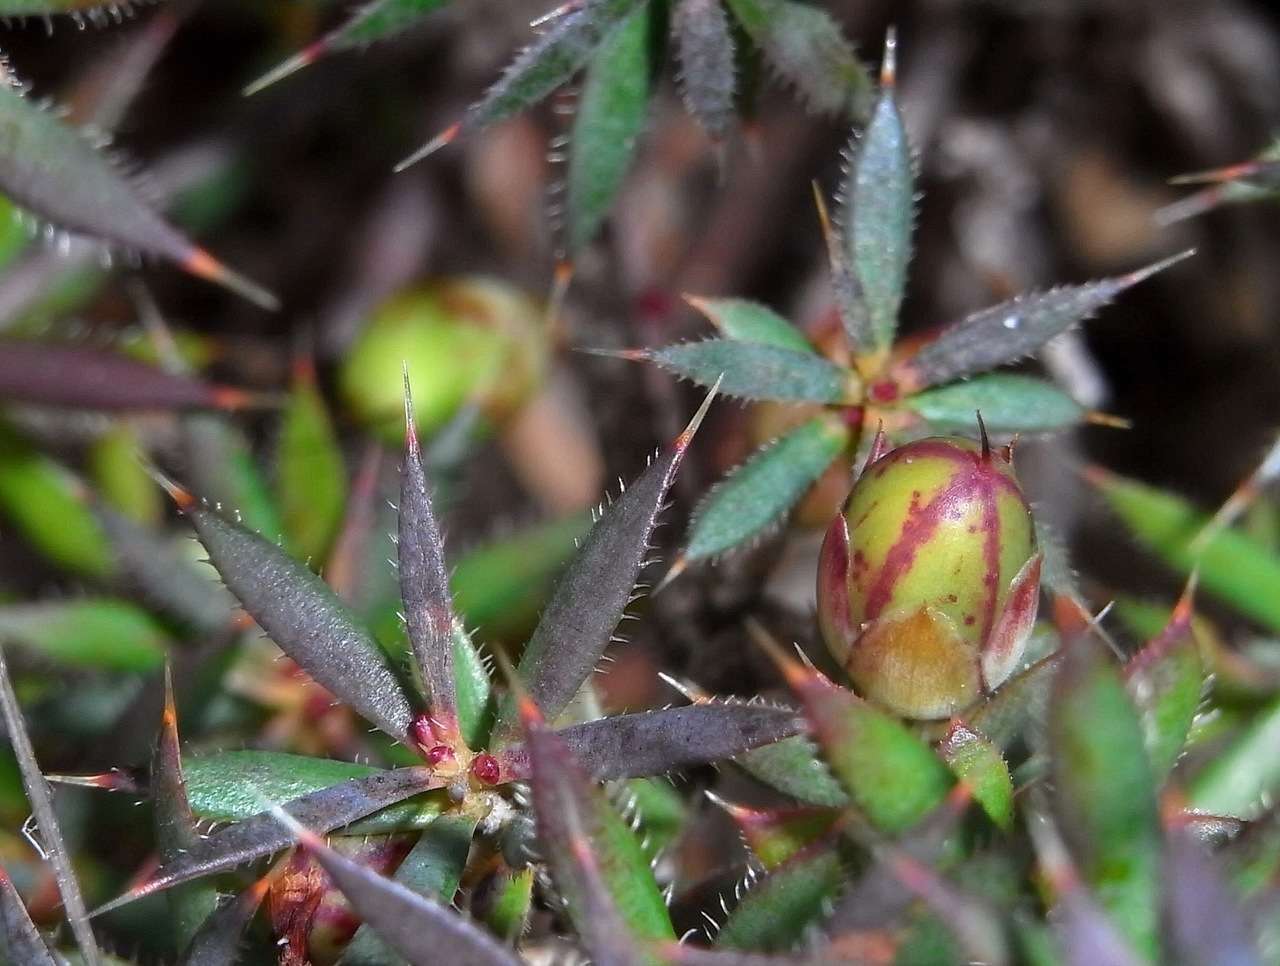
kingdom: Plantae
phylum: Tracheophyta
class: Magnoliopsida
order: Ericales
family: Ericaceae
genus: Styphelia
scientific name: Styphelia humifusa
